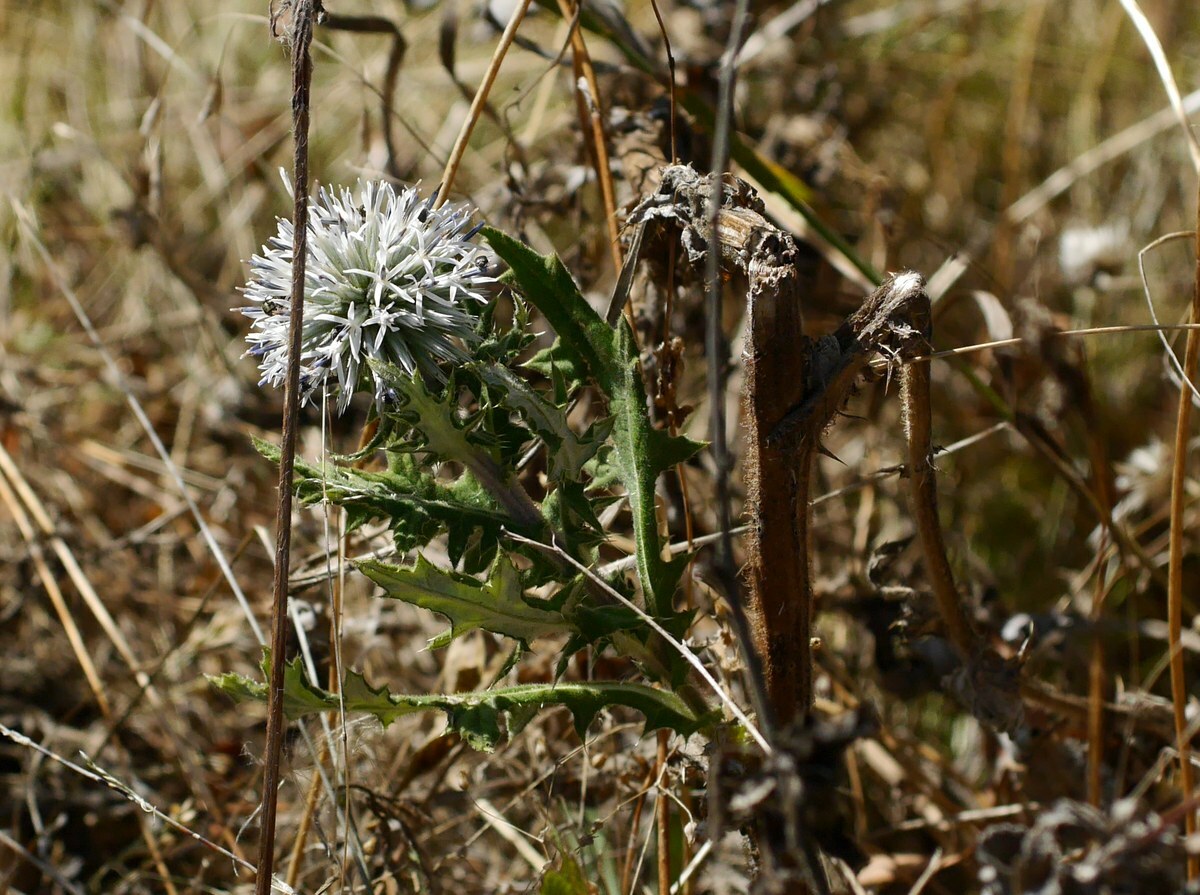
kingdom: Plantae
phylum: Tracheophyta
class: Magnoliopsida
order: Asterales
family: Asteraceae
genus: Echinops
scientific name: Echinops sphaerocephalus
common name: Glandular globe-thistle
